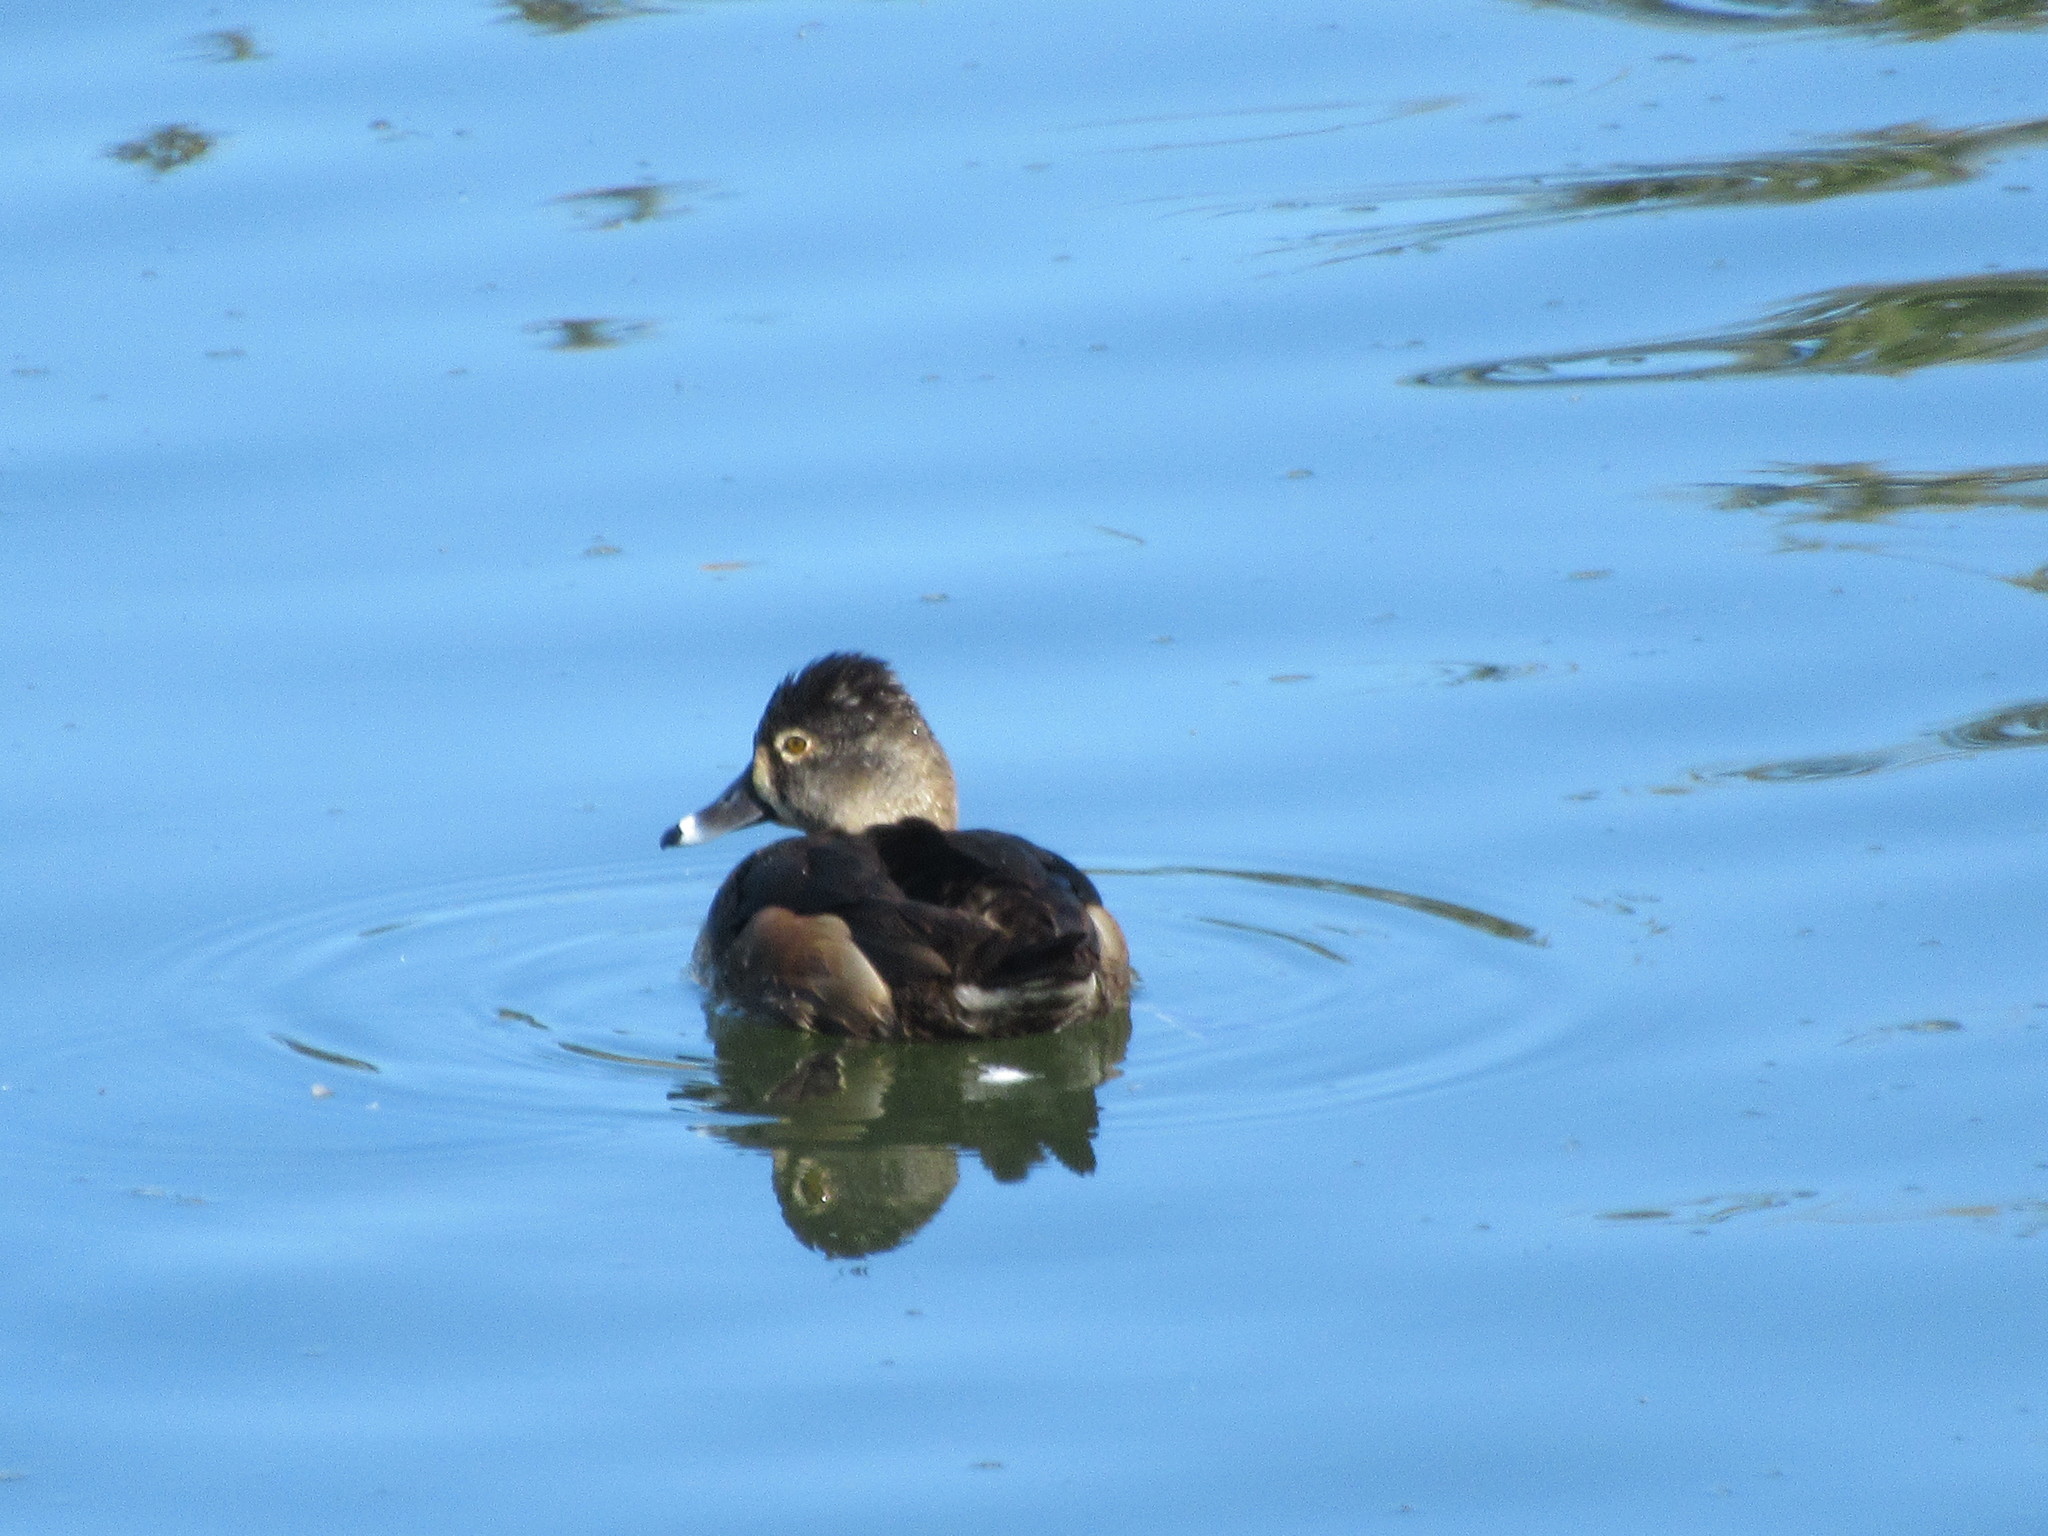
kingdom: Animalia
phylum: Chordata
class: Aves
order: Anseriformes
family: Anatidae
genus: Aythya
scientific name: Aythya collaris
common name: Ring-necked duck
